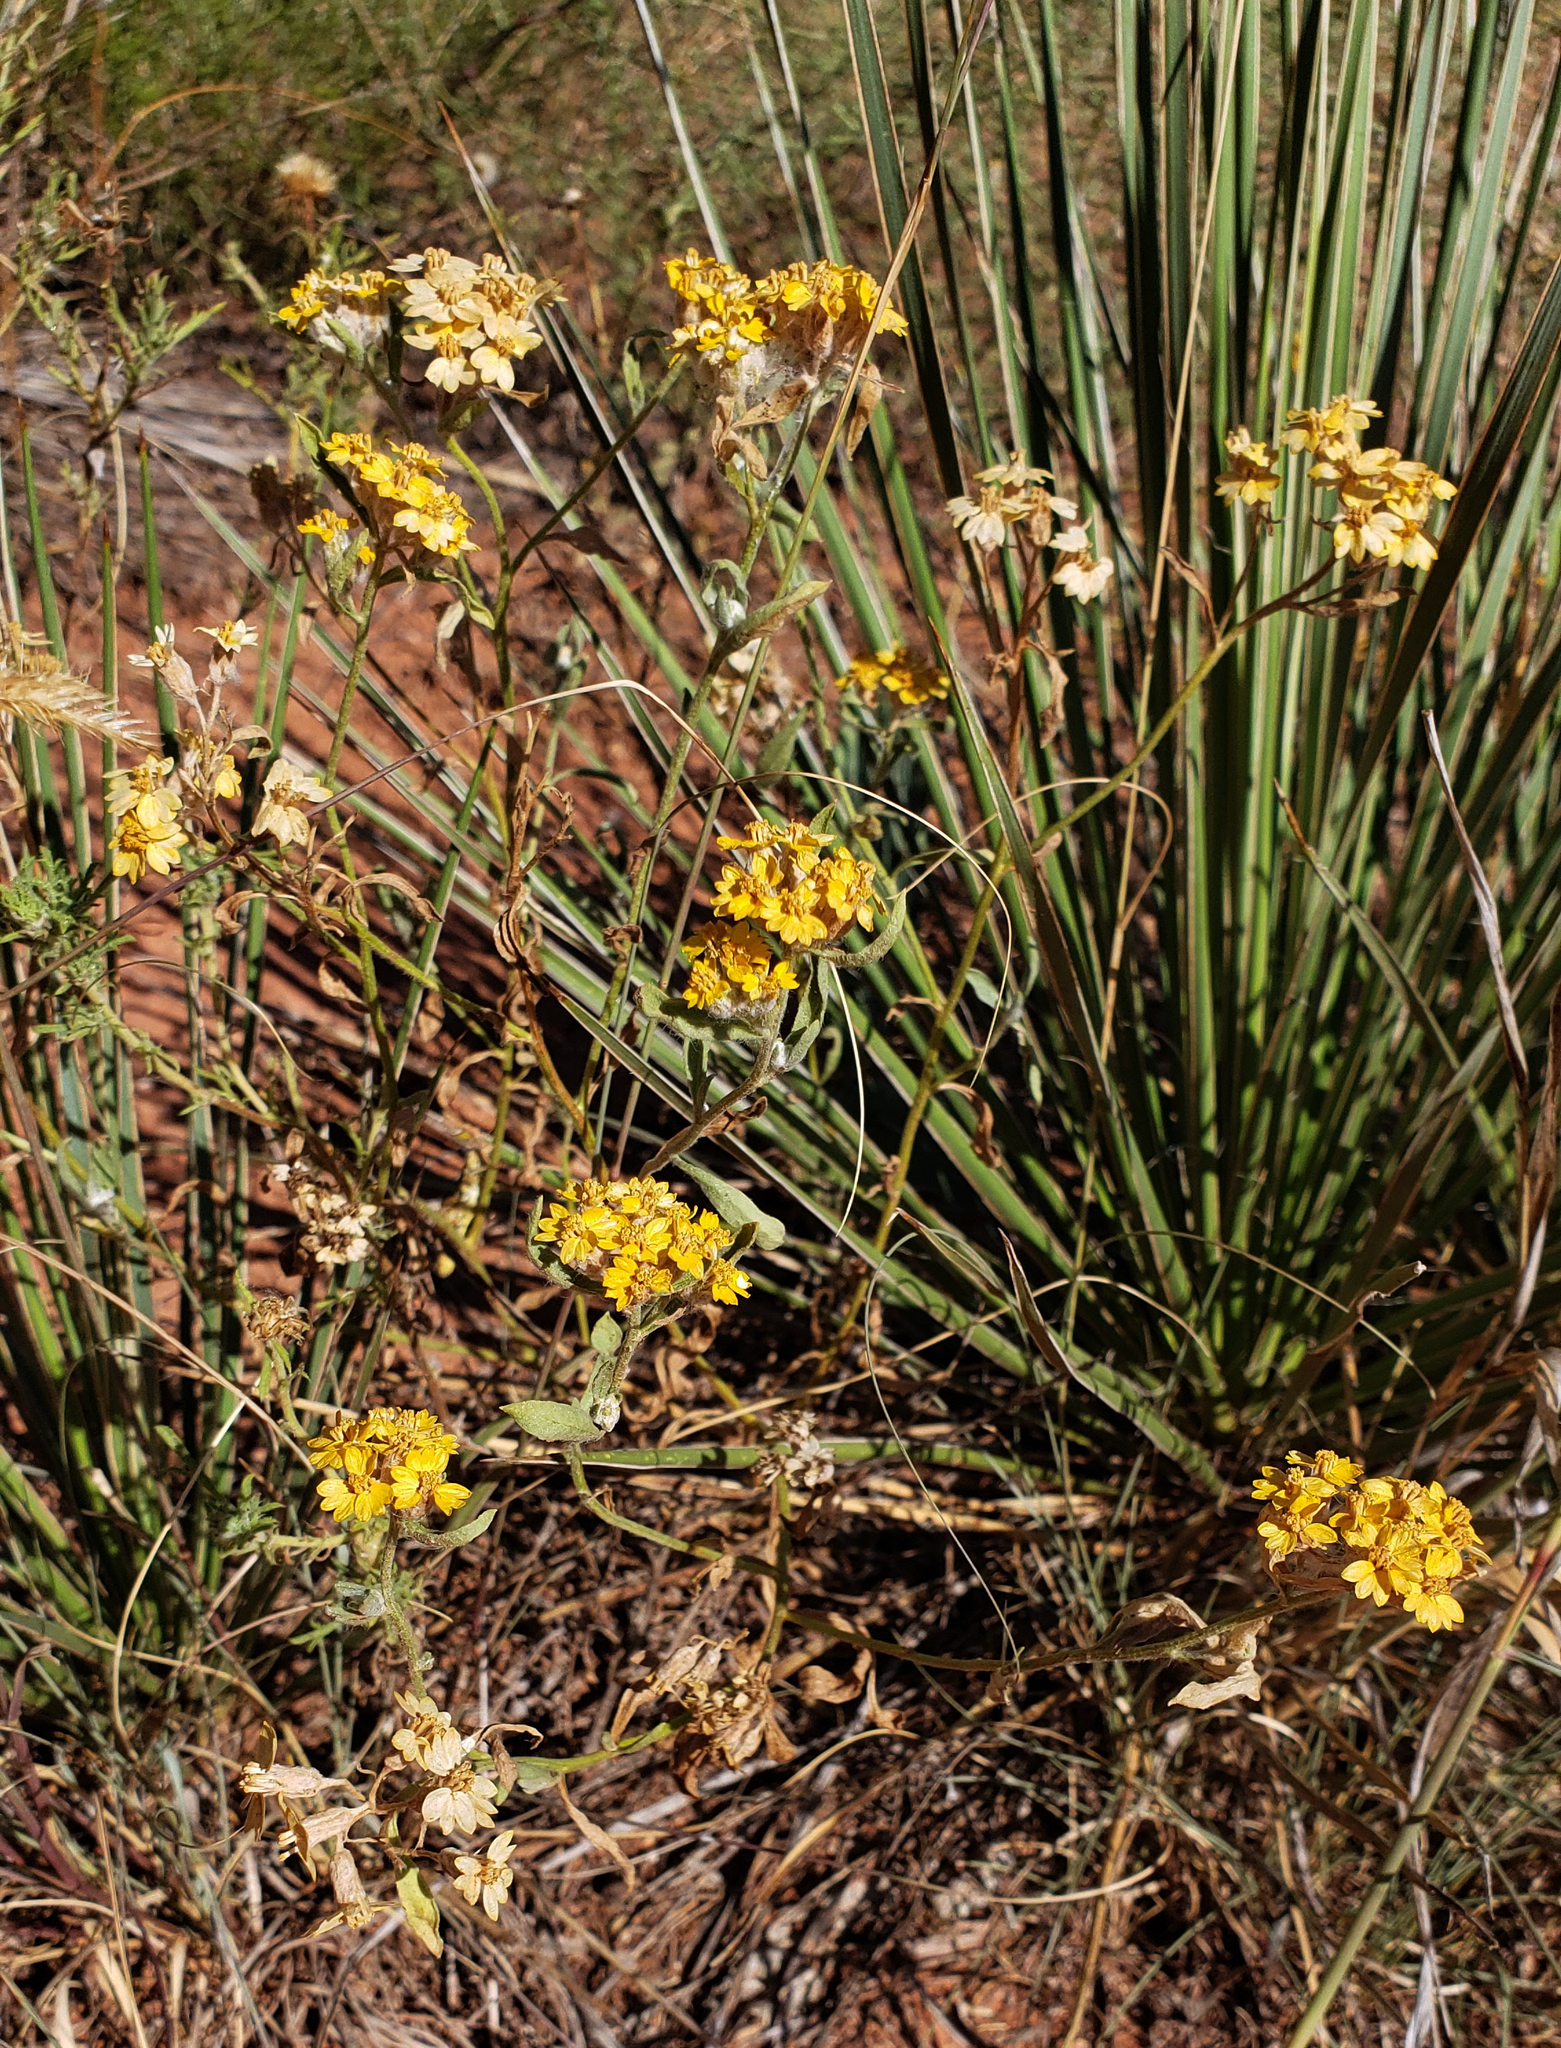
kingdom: Plantae
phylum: Tracheophyta
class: Magnoliopsida
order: Asterales
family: Asteraceae
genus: Psilostrophe
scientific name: Psilostrophe tagetina
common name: Marigold paper-flower
